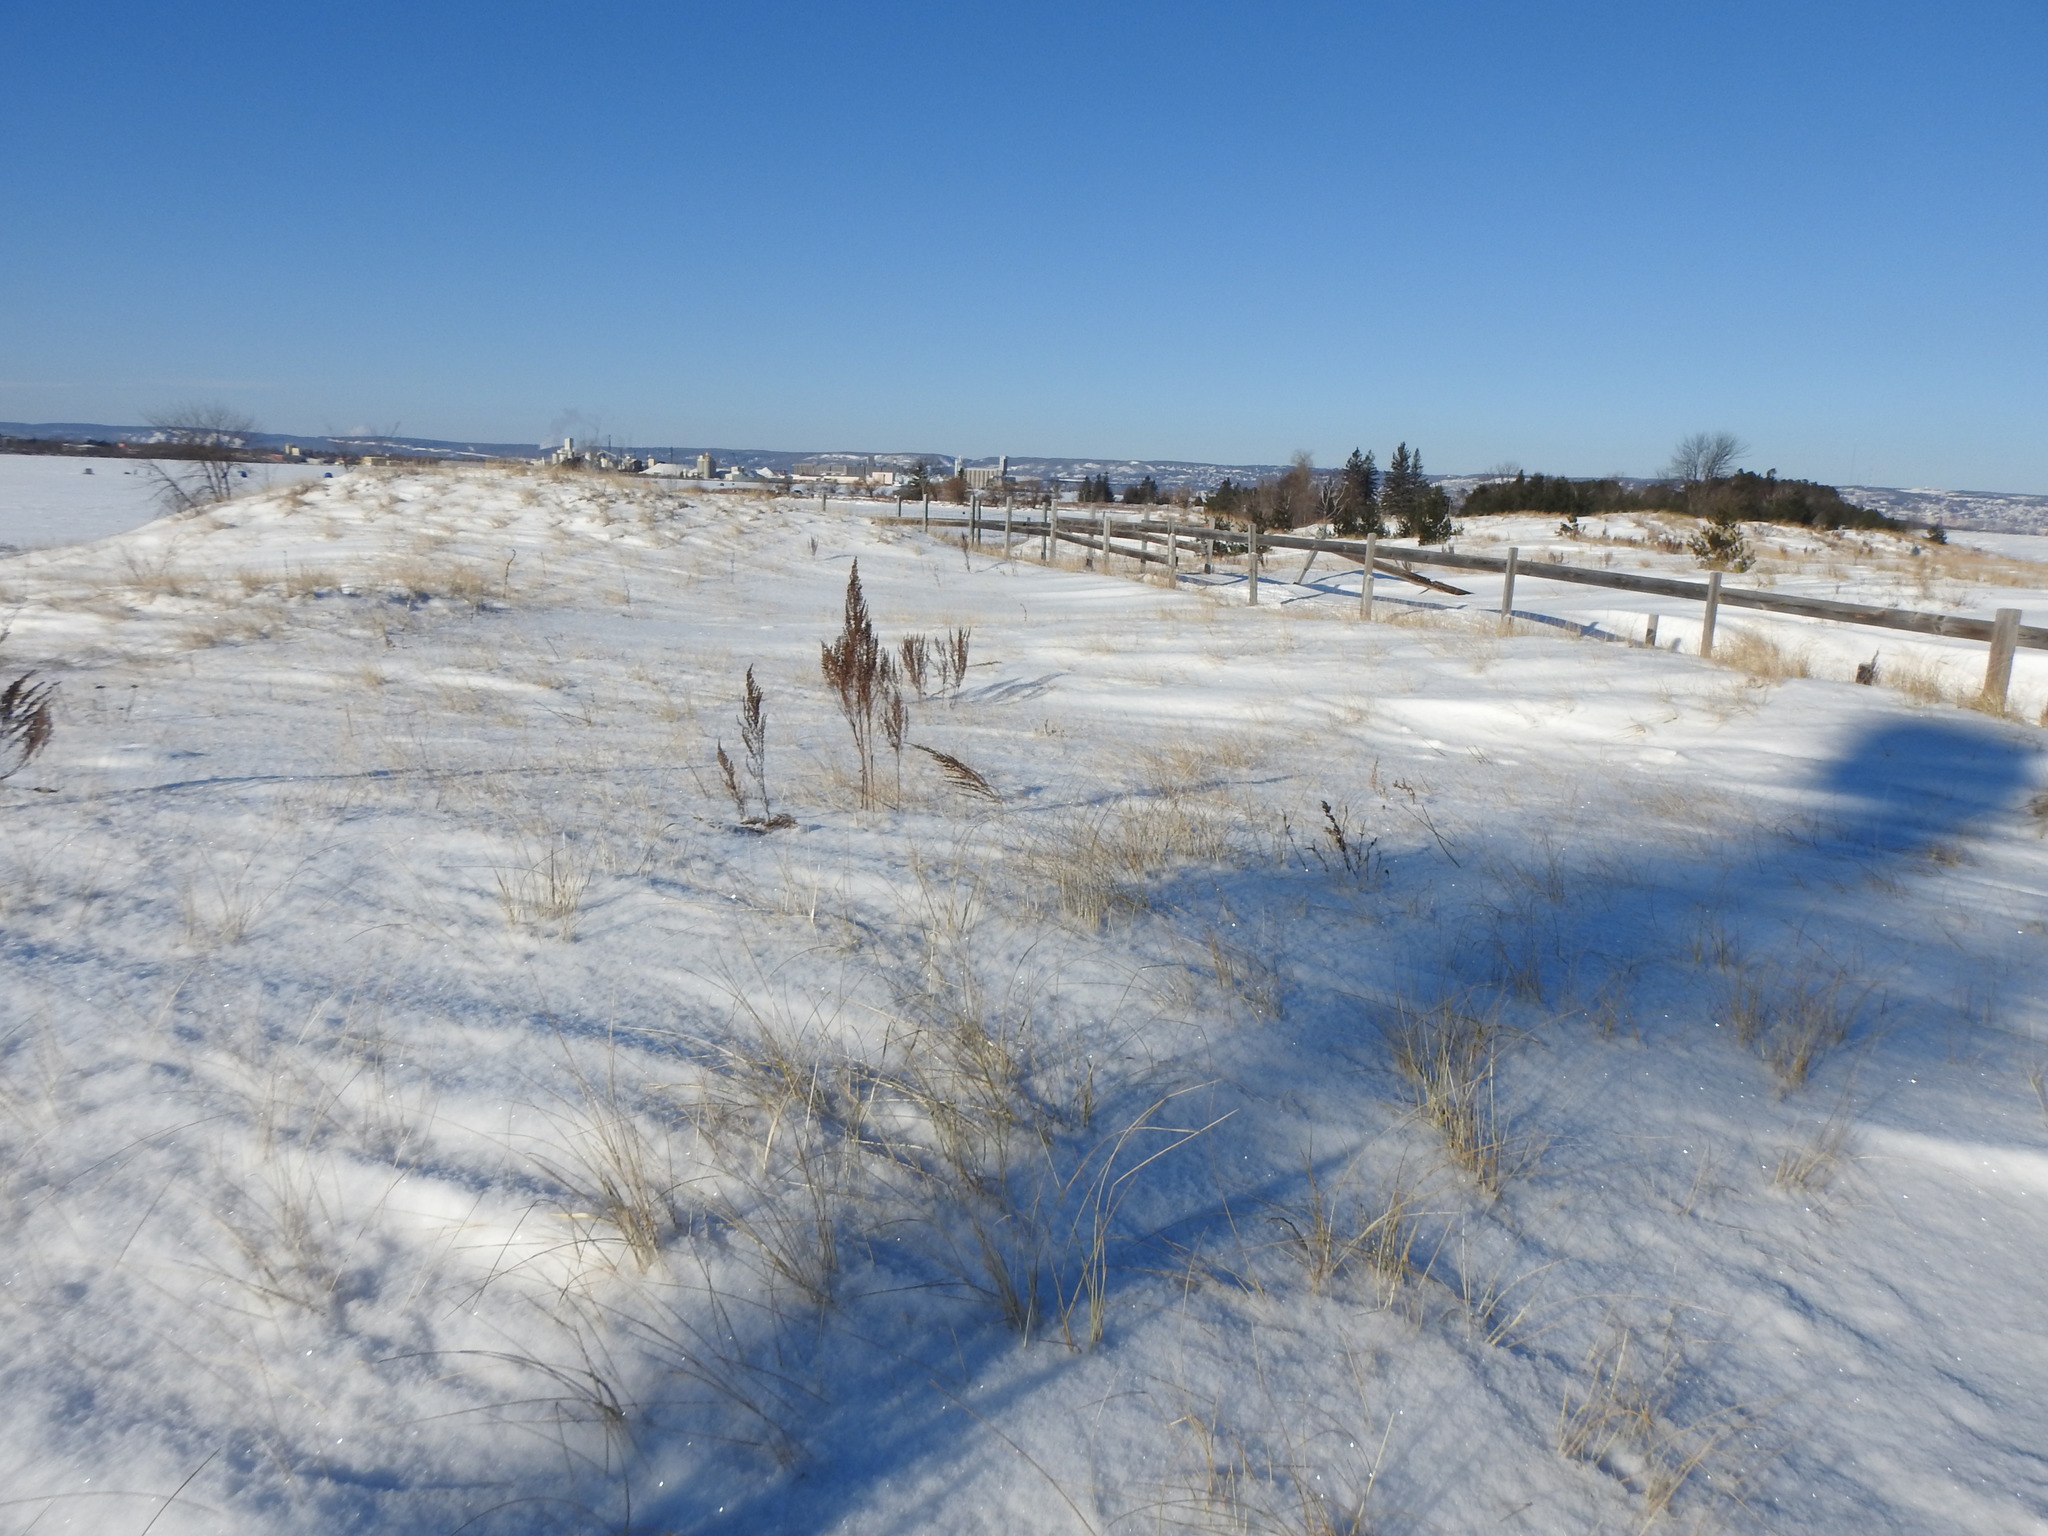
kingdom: Plantae
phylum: Tracheophyta
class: Liliopsida
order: Poales
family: Poaceae
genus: Calamagrostis
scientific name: Calamagrostis breviligulata
